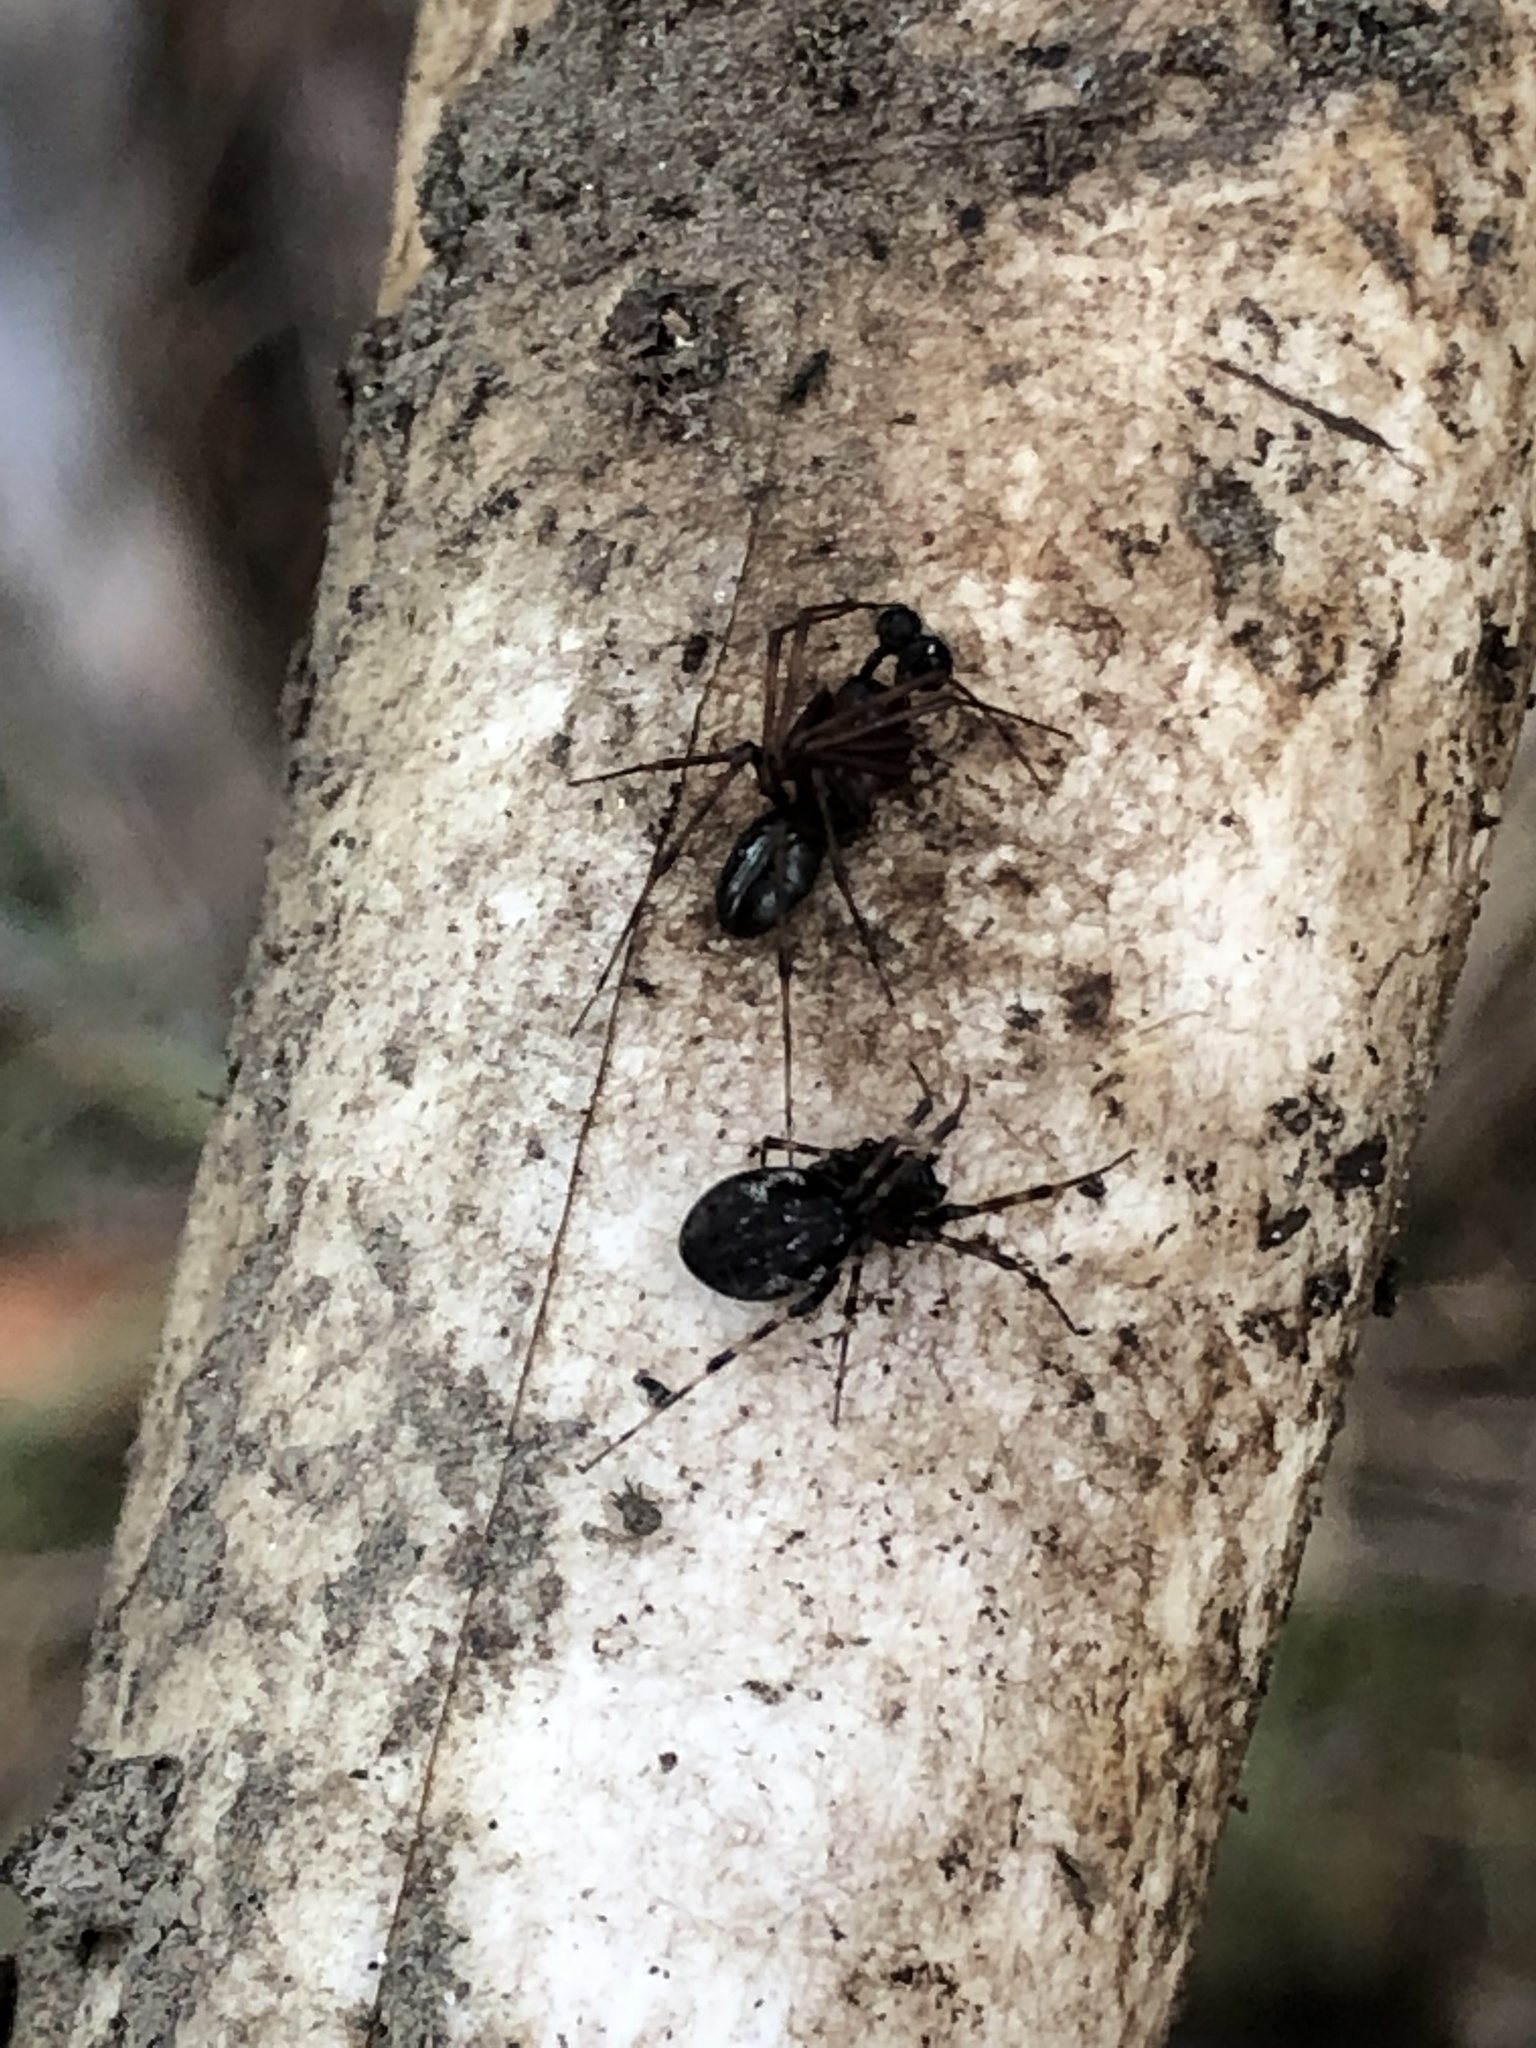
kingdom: Animalia
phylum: Arthropoda
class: Arachnida
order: Araneae
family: Linyphiidae
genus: Neriene
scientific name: Neriene digna
